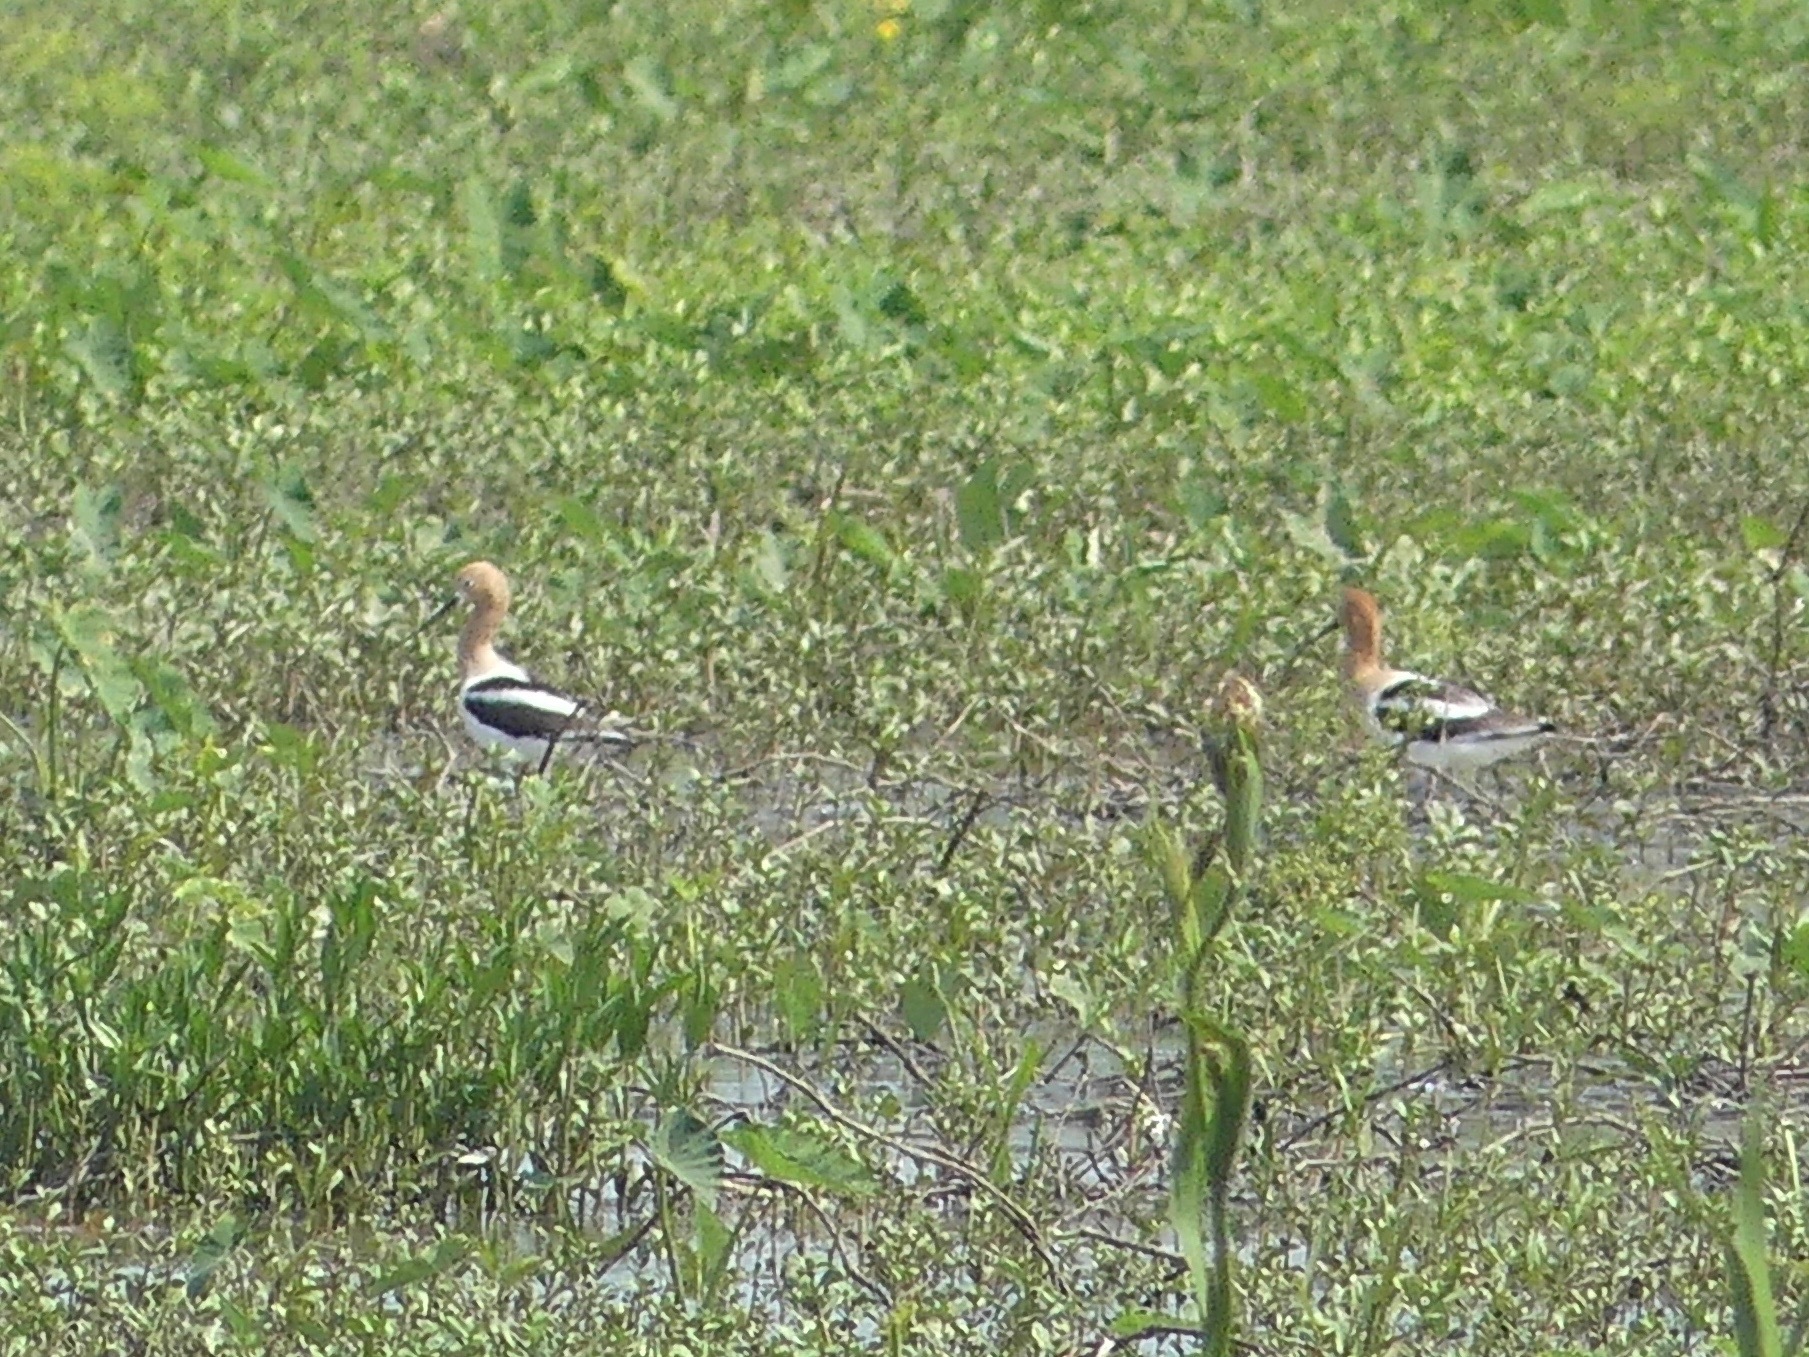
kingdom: Animalia
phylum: Chordata
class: Aves
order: Charadriiformes
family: Recurvirostridae
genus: Recurvirostra
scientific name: Recurvirostra americana
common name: American avocet
